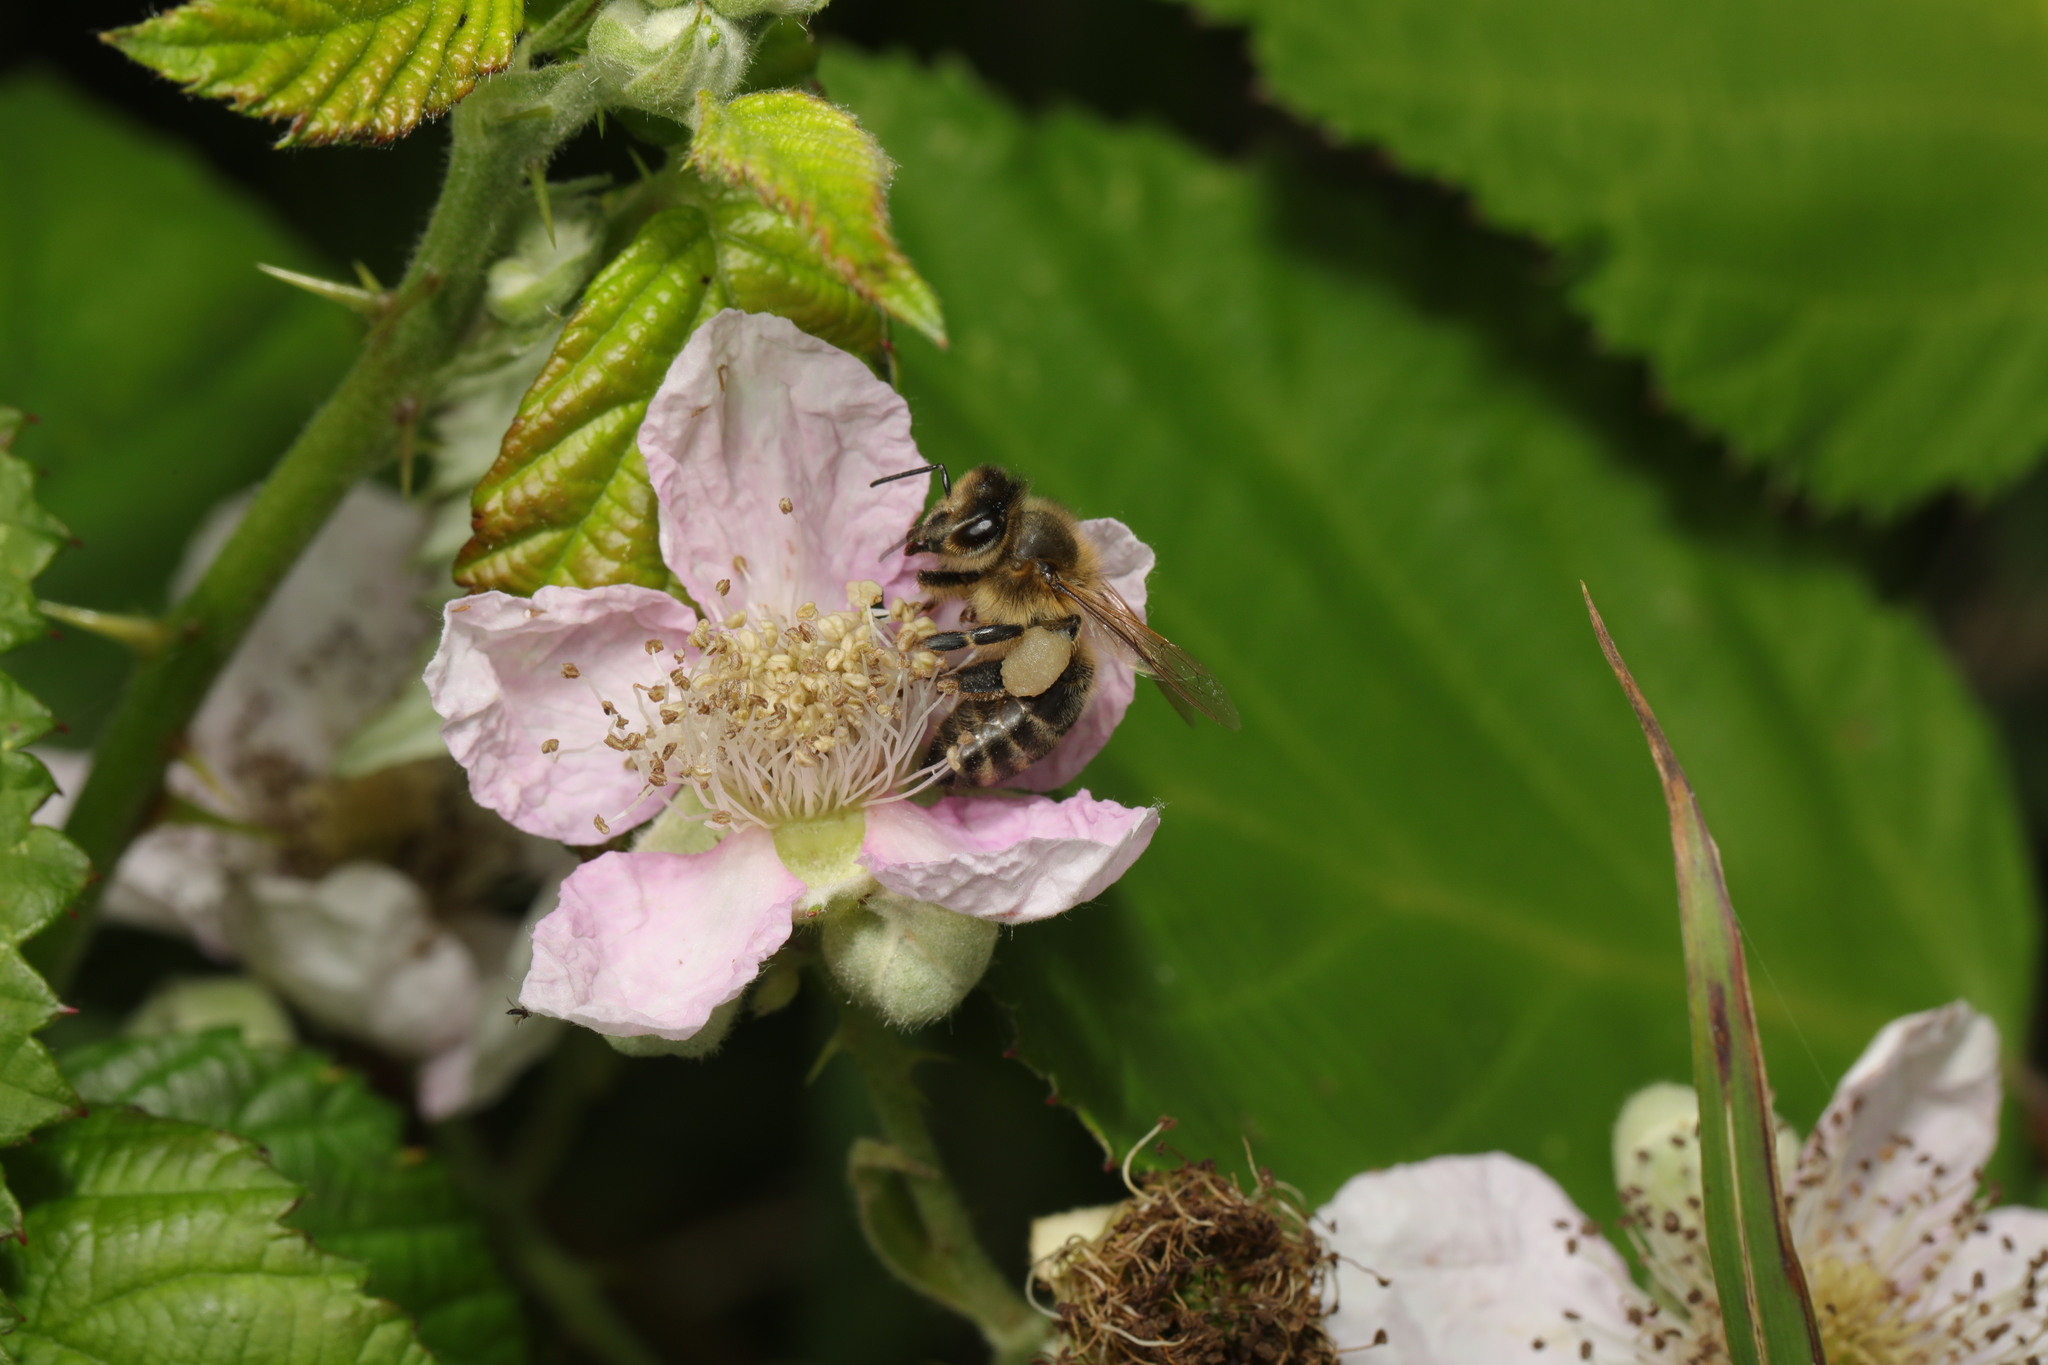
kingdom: Animalia
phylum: Arthropoda
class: Insecta
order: Hymenoptera
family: Apidae
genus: Apis
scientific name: Apis mellifera
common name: Honey bee
